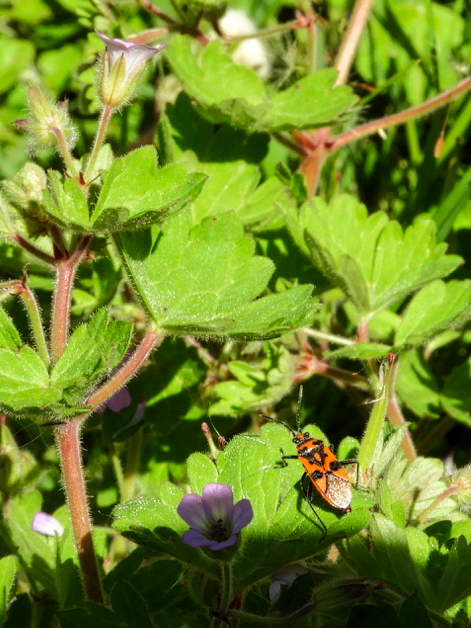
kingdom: Animalia
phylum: Arthropoda
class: Insecta
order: Hemiptera
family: Rhopalidae
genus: Corizus
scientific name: Corizus hyoscyami
